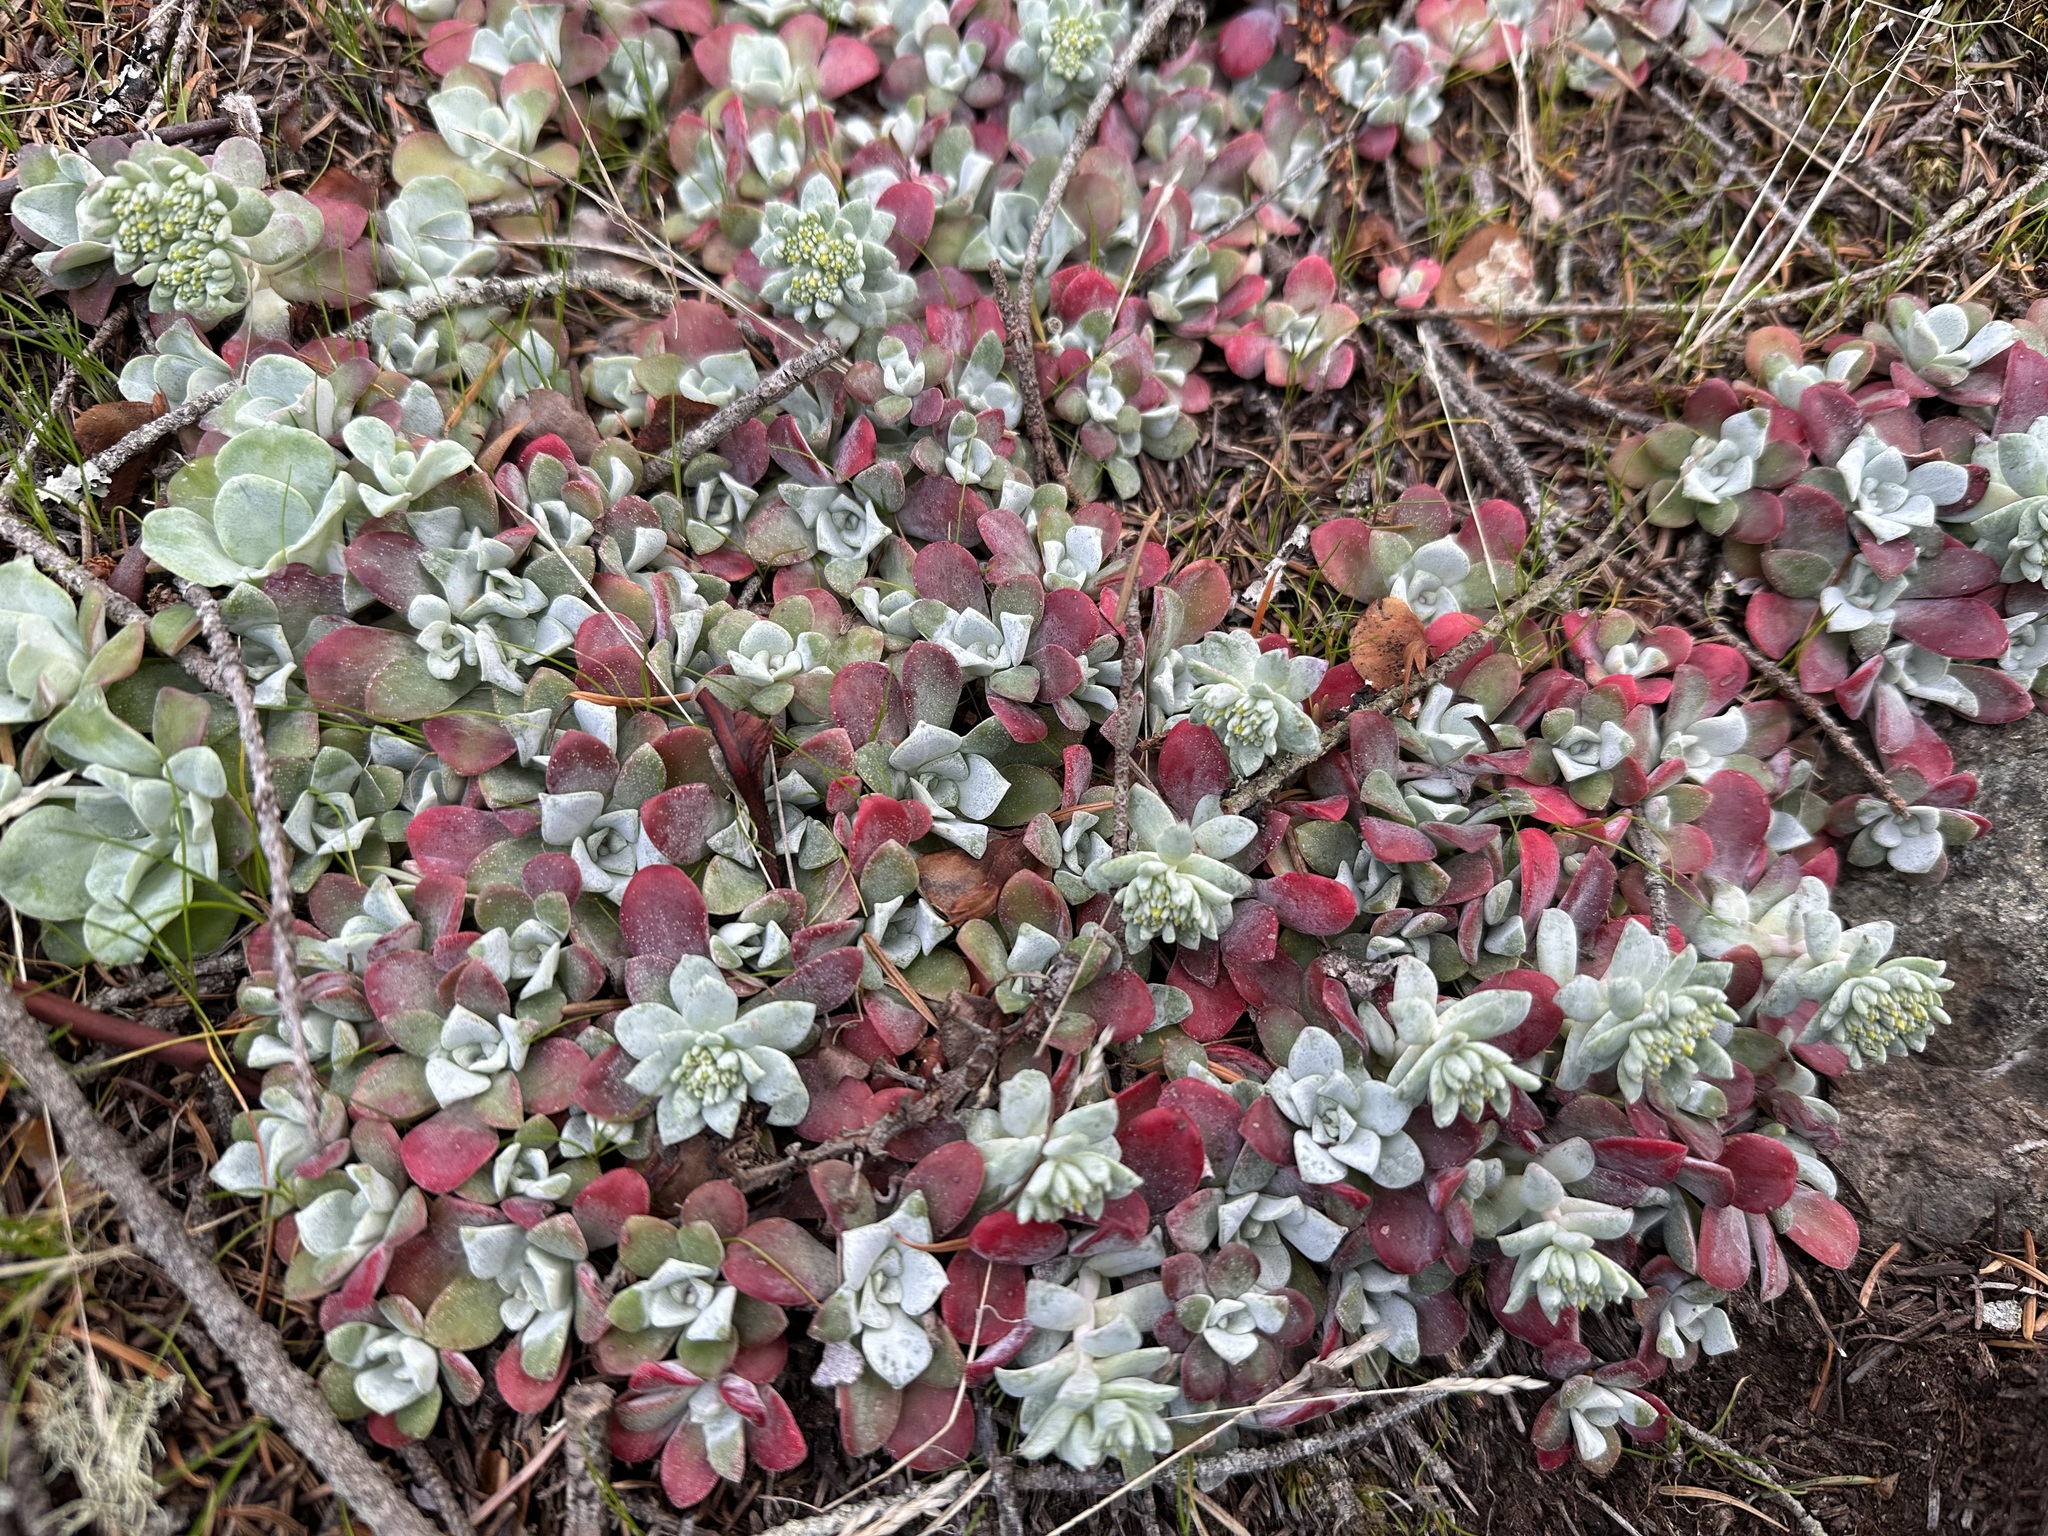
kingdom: Plantae
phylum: Tracheophyta
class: Magnoliopsida
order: Saxifragales
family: Crassulaceae
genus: Sedum
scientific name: Sedum spathulifolium
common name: Colorado stonecrop
